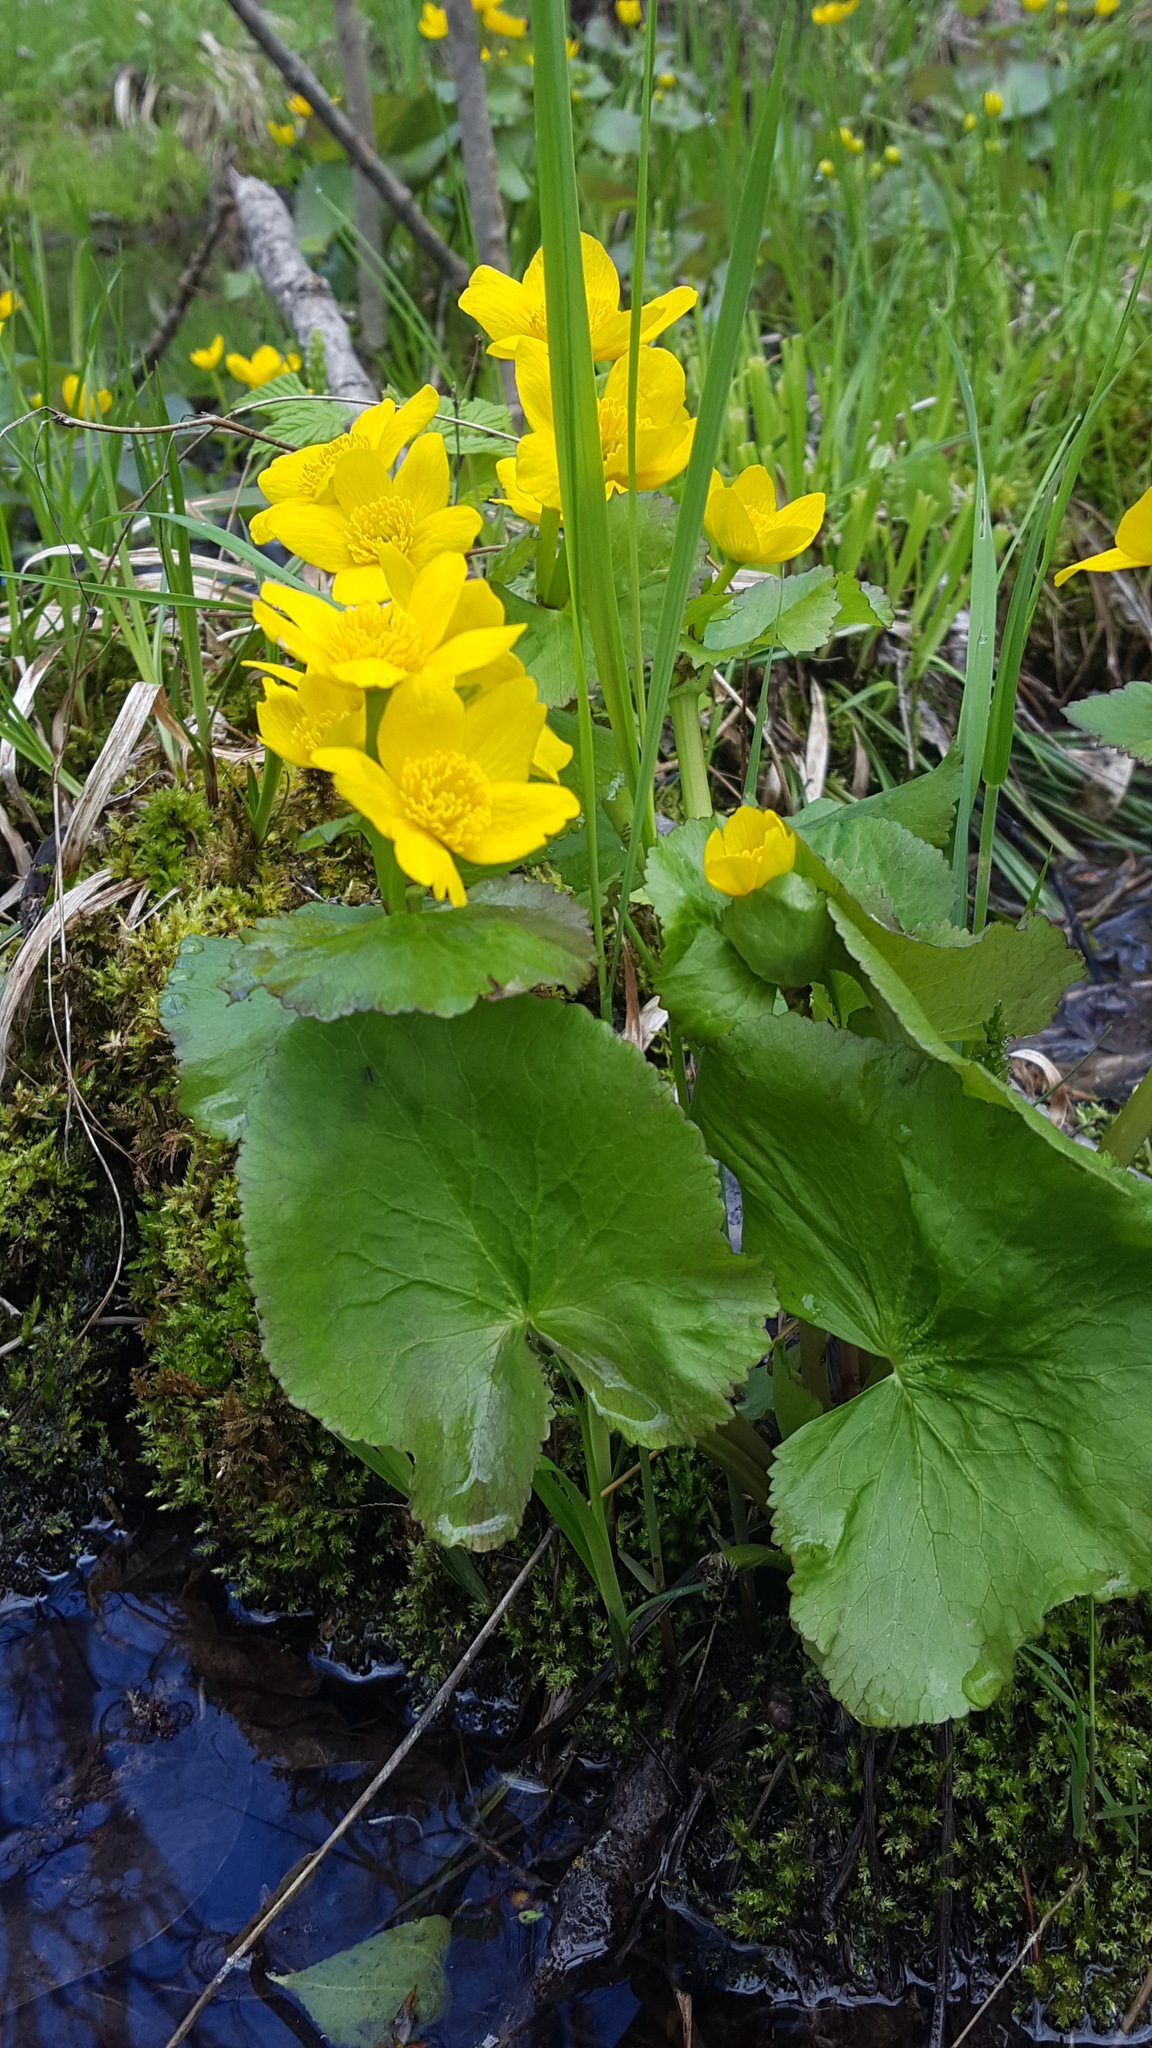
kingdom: Plantae
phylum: Tracheophyta
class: Magnoliopsida
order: Ranunculales
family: Ranunculaceae
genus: Caltha
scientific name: Caltha palustris
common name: Marsh marigold
